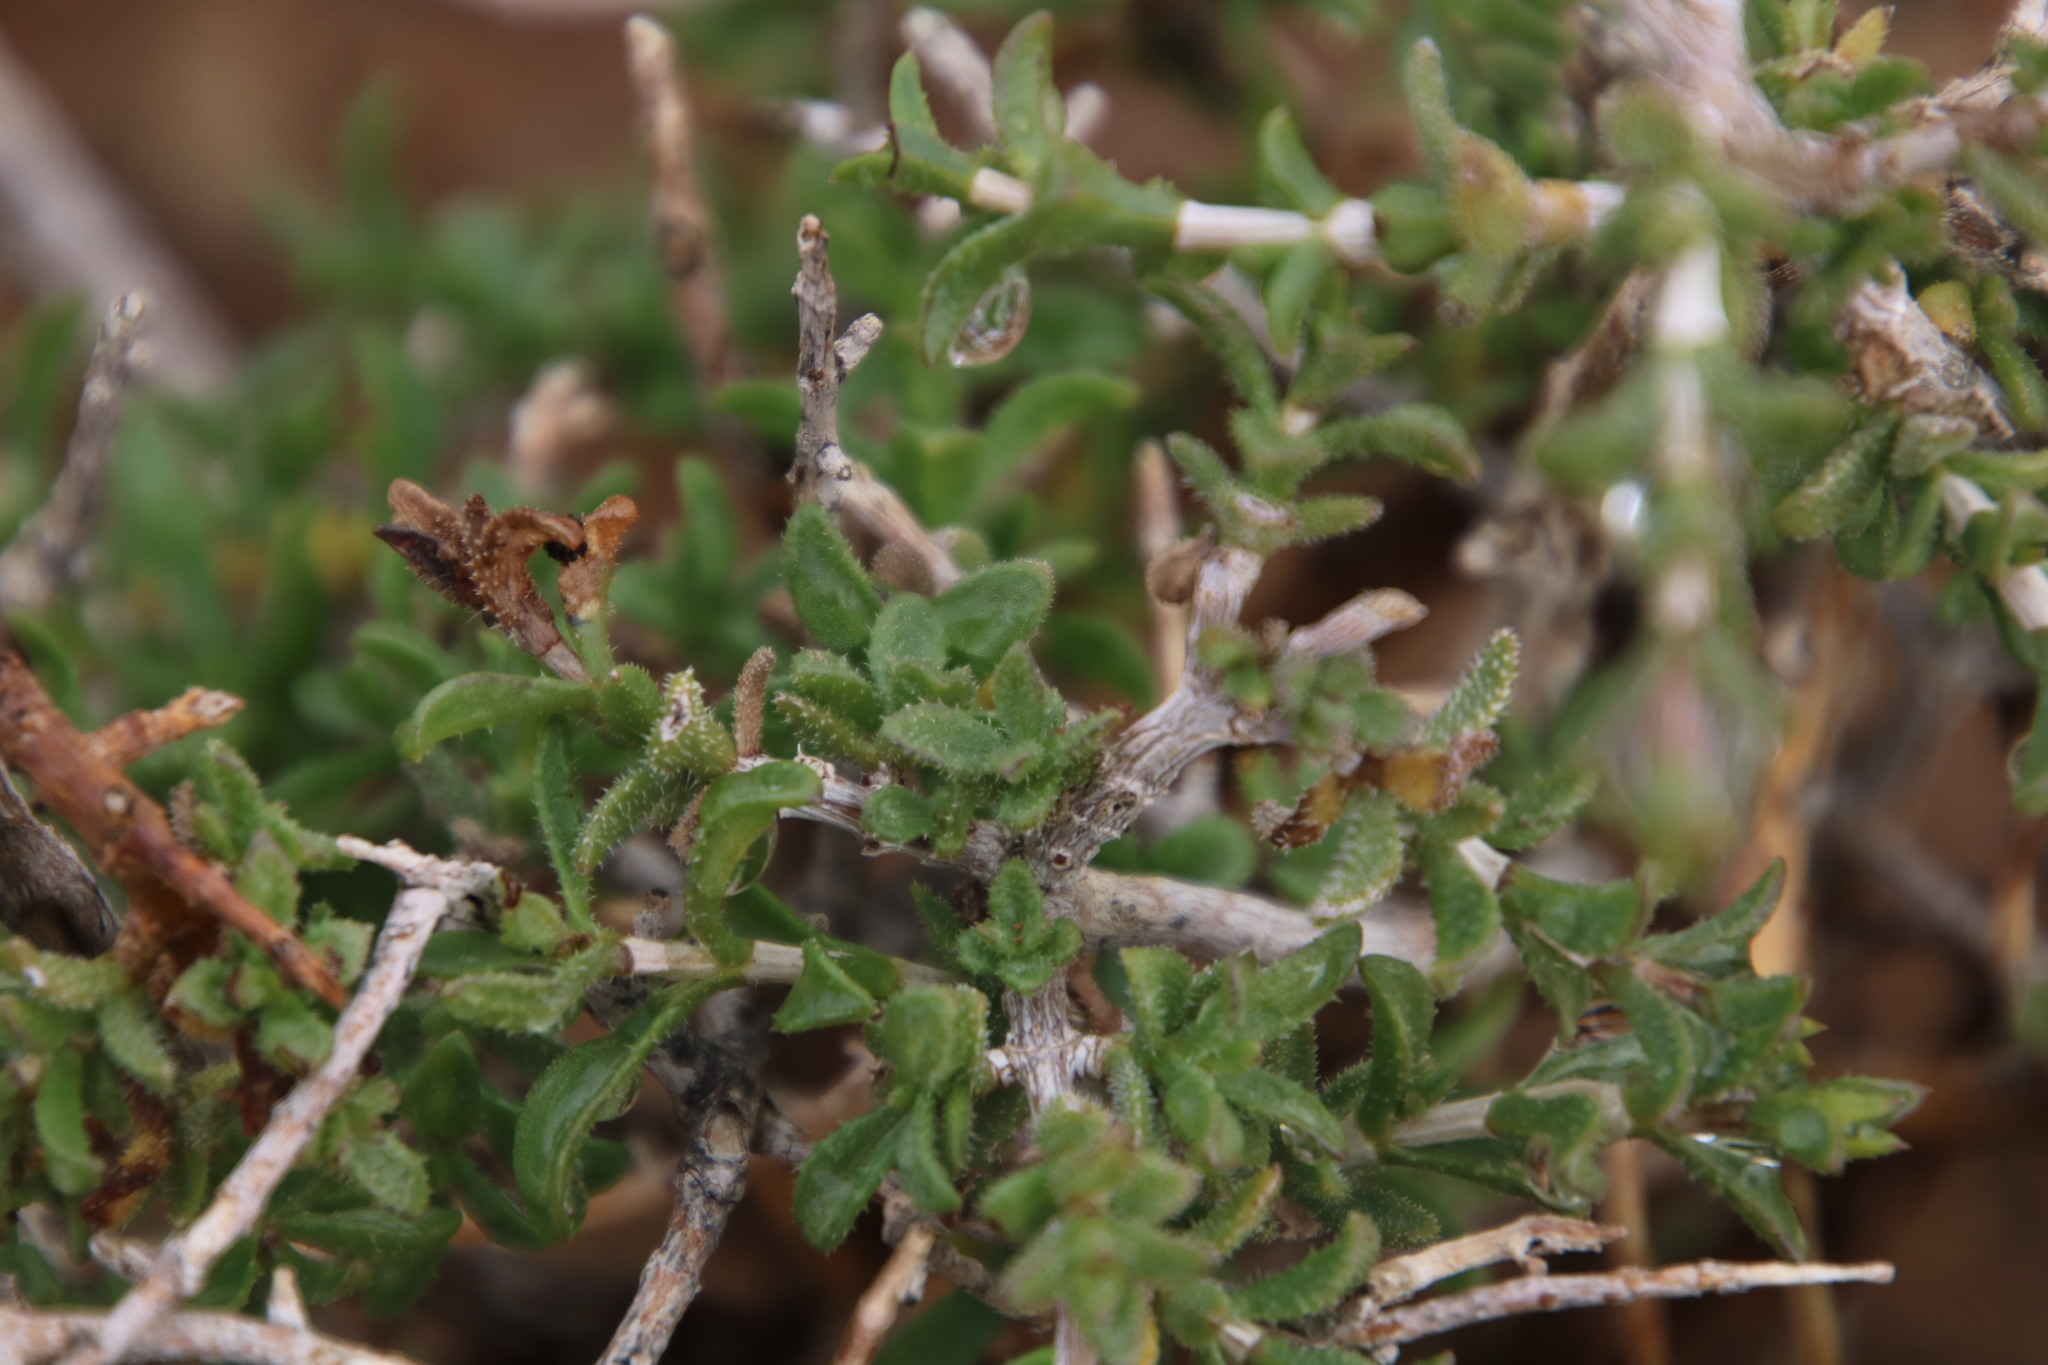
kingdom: Plantae
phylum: Tracheophyta
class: Magnoliopsida
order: Asterales
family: Asteraceae
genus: Pteronia
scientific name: Pteronia viscosa
